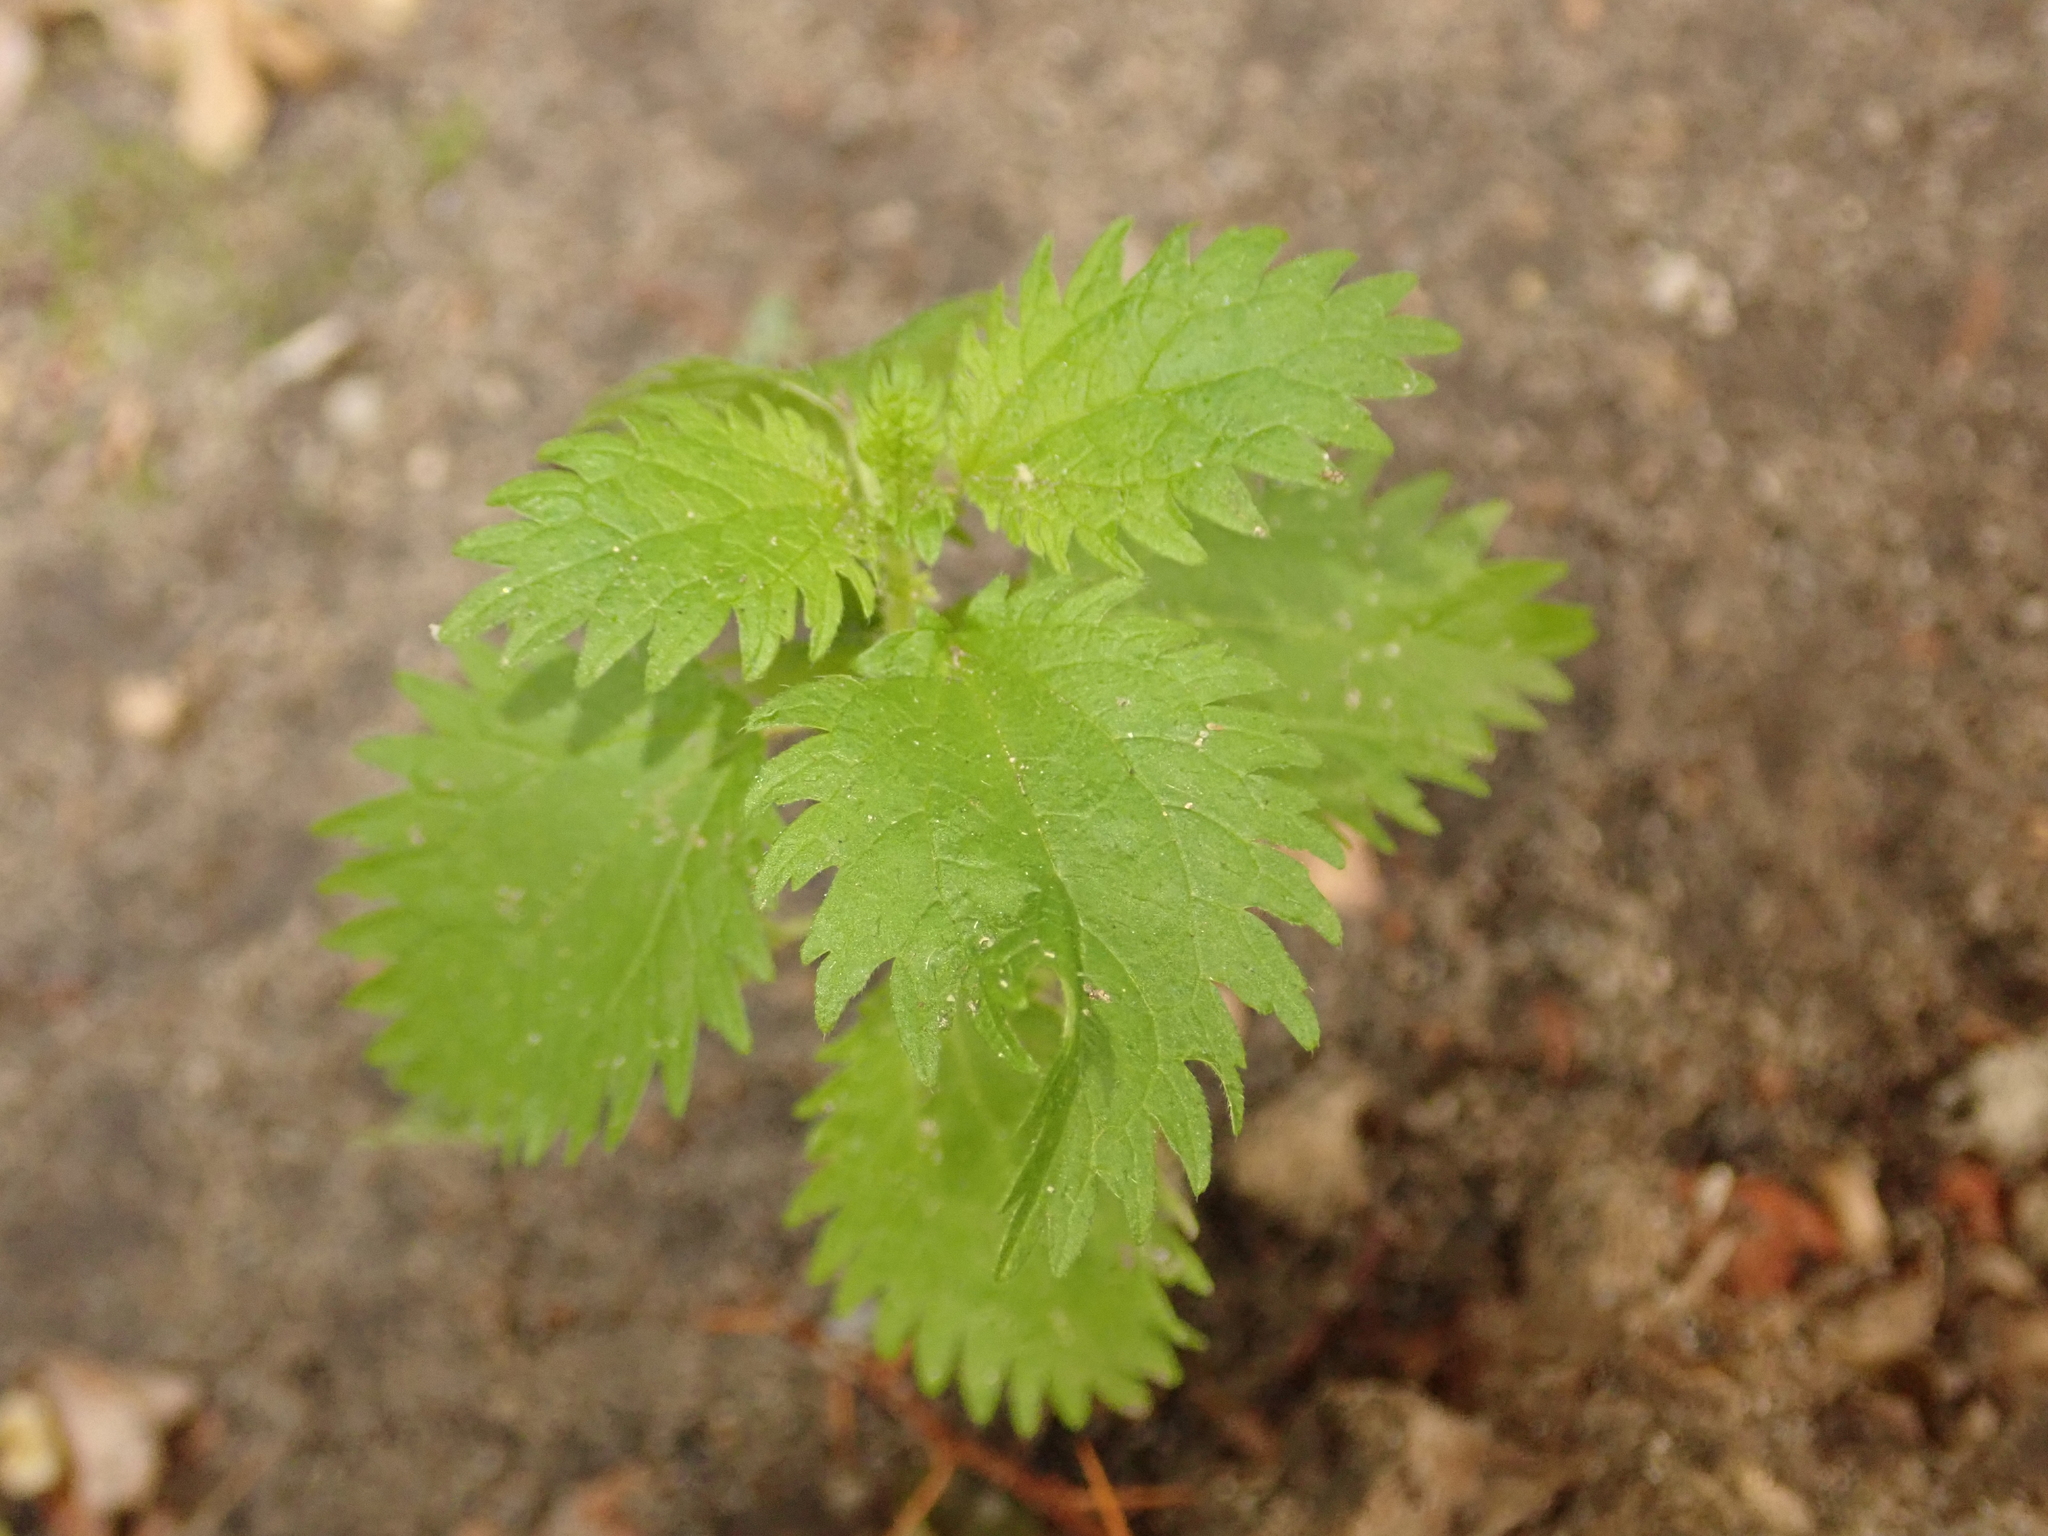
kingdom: Plantae
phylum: Tracheophyta
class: Magnoliopsida
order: Rosales
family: Urticaceae
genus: Urtica
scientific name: Urtica urens
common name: Dwarf nettle
